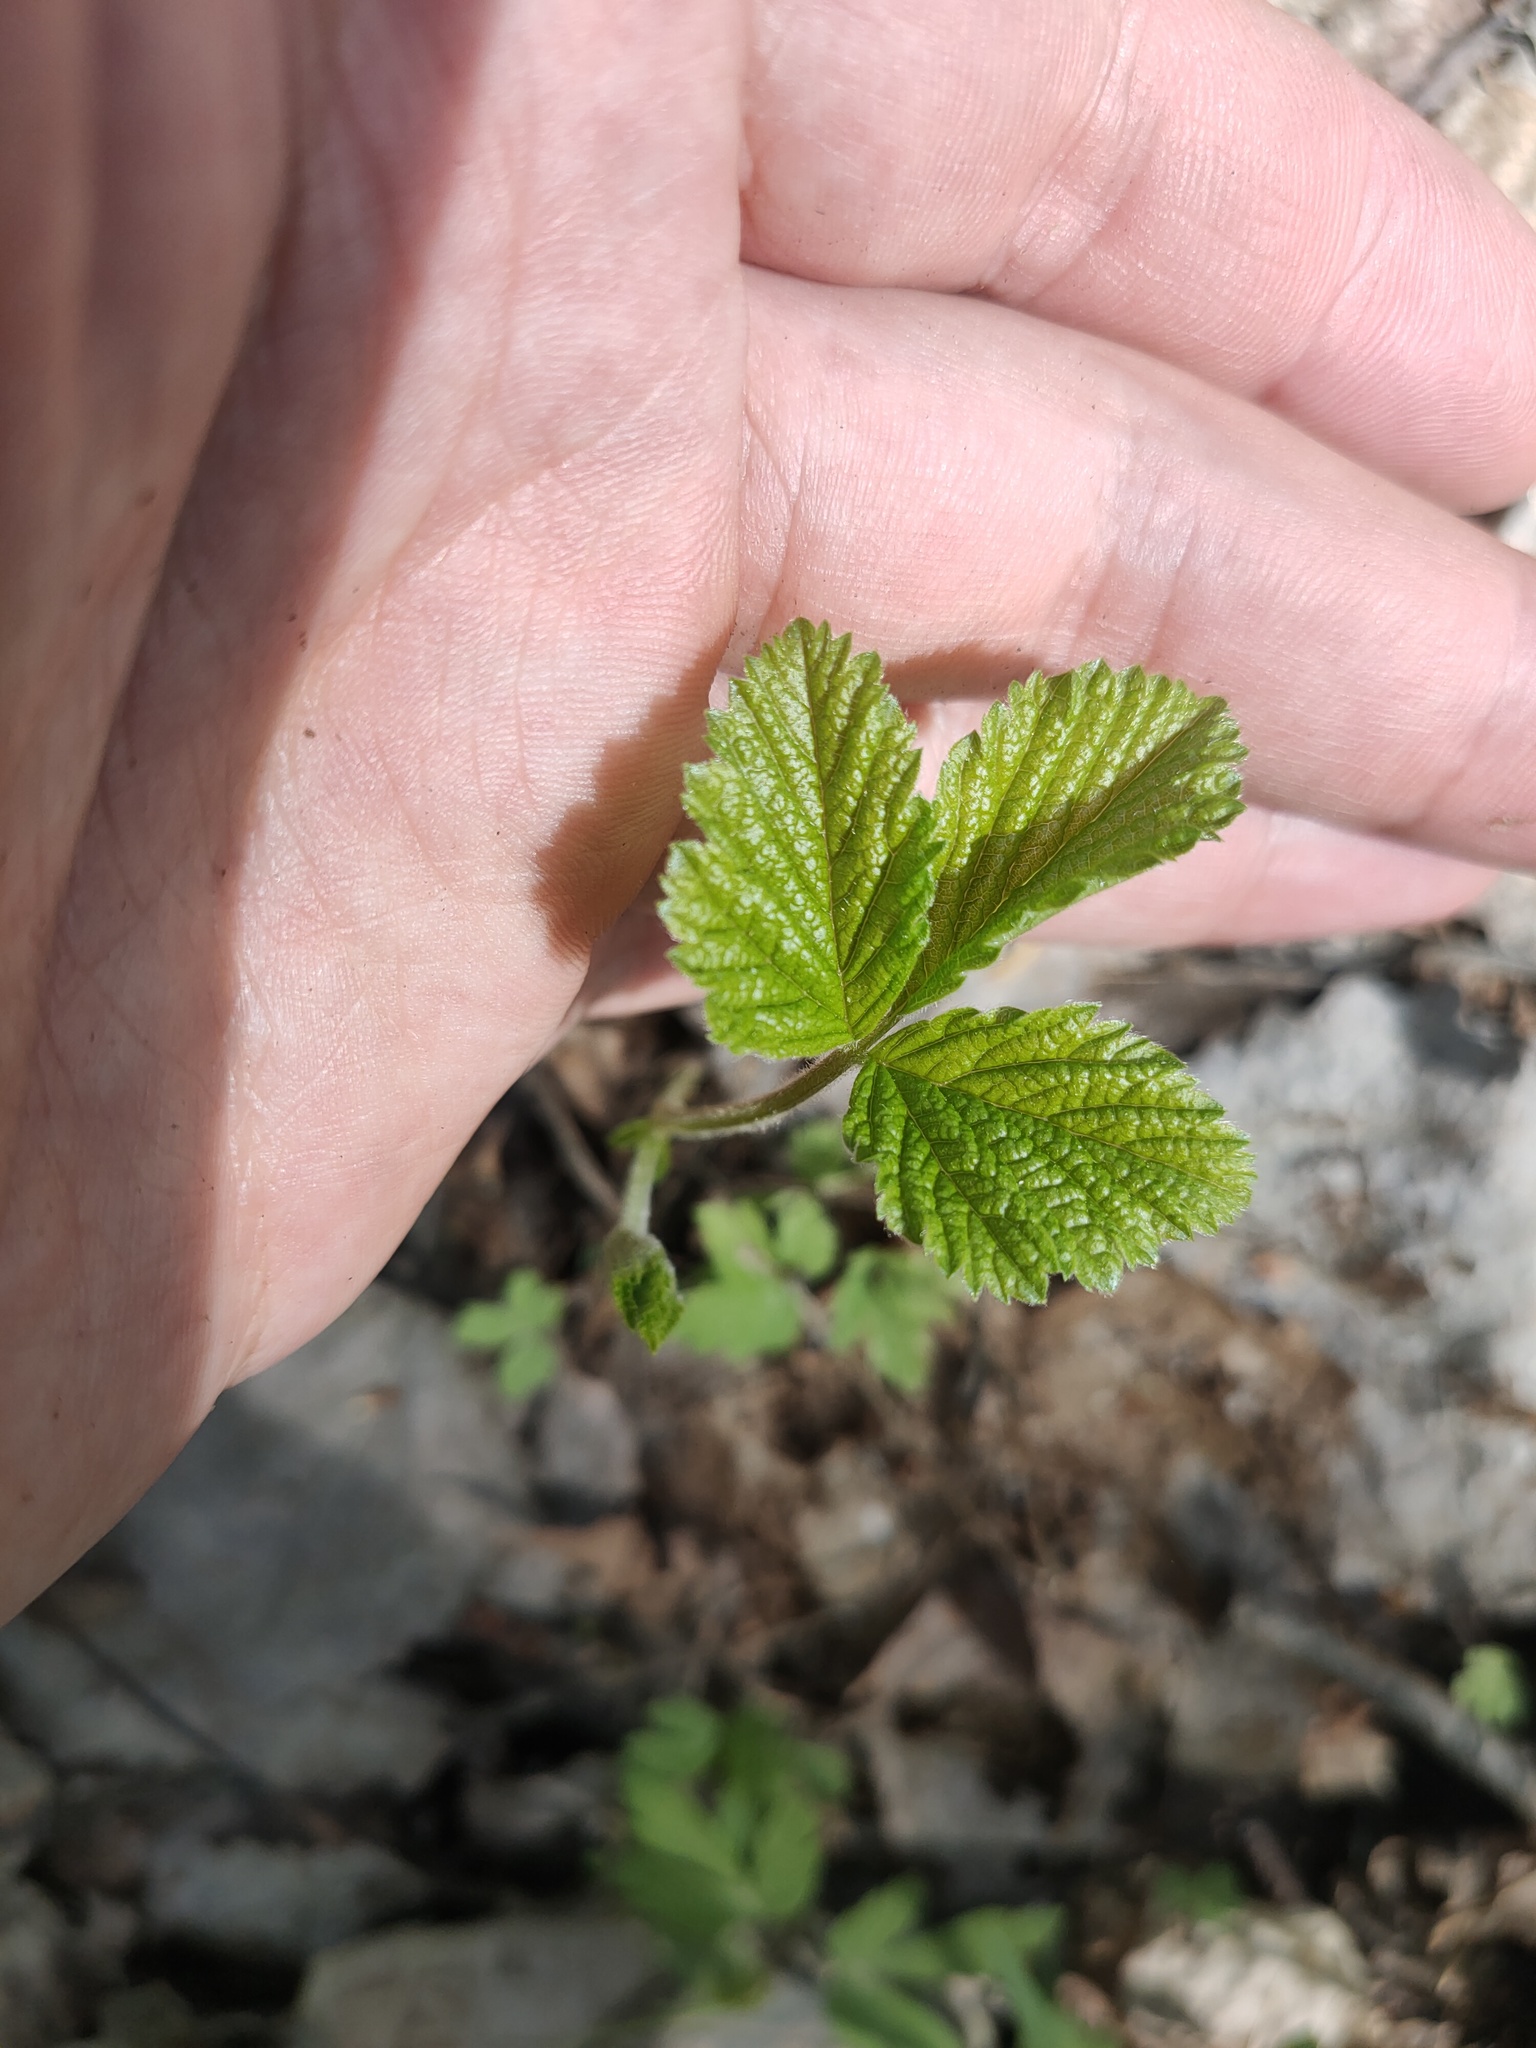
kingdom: Plantae
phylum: Tracheophyta
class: Magnoliopsida
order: Rosales
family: Rosaceae
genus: Rubus
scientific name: Rubus saxatilis
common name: Stone bramble
